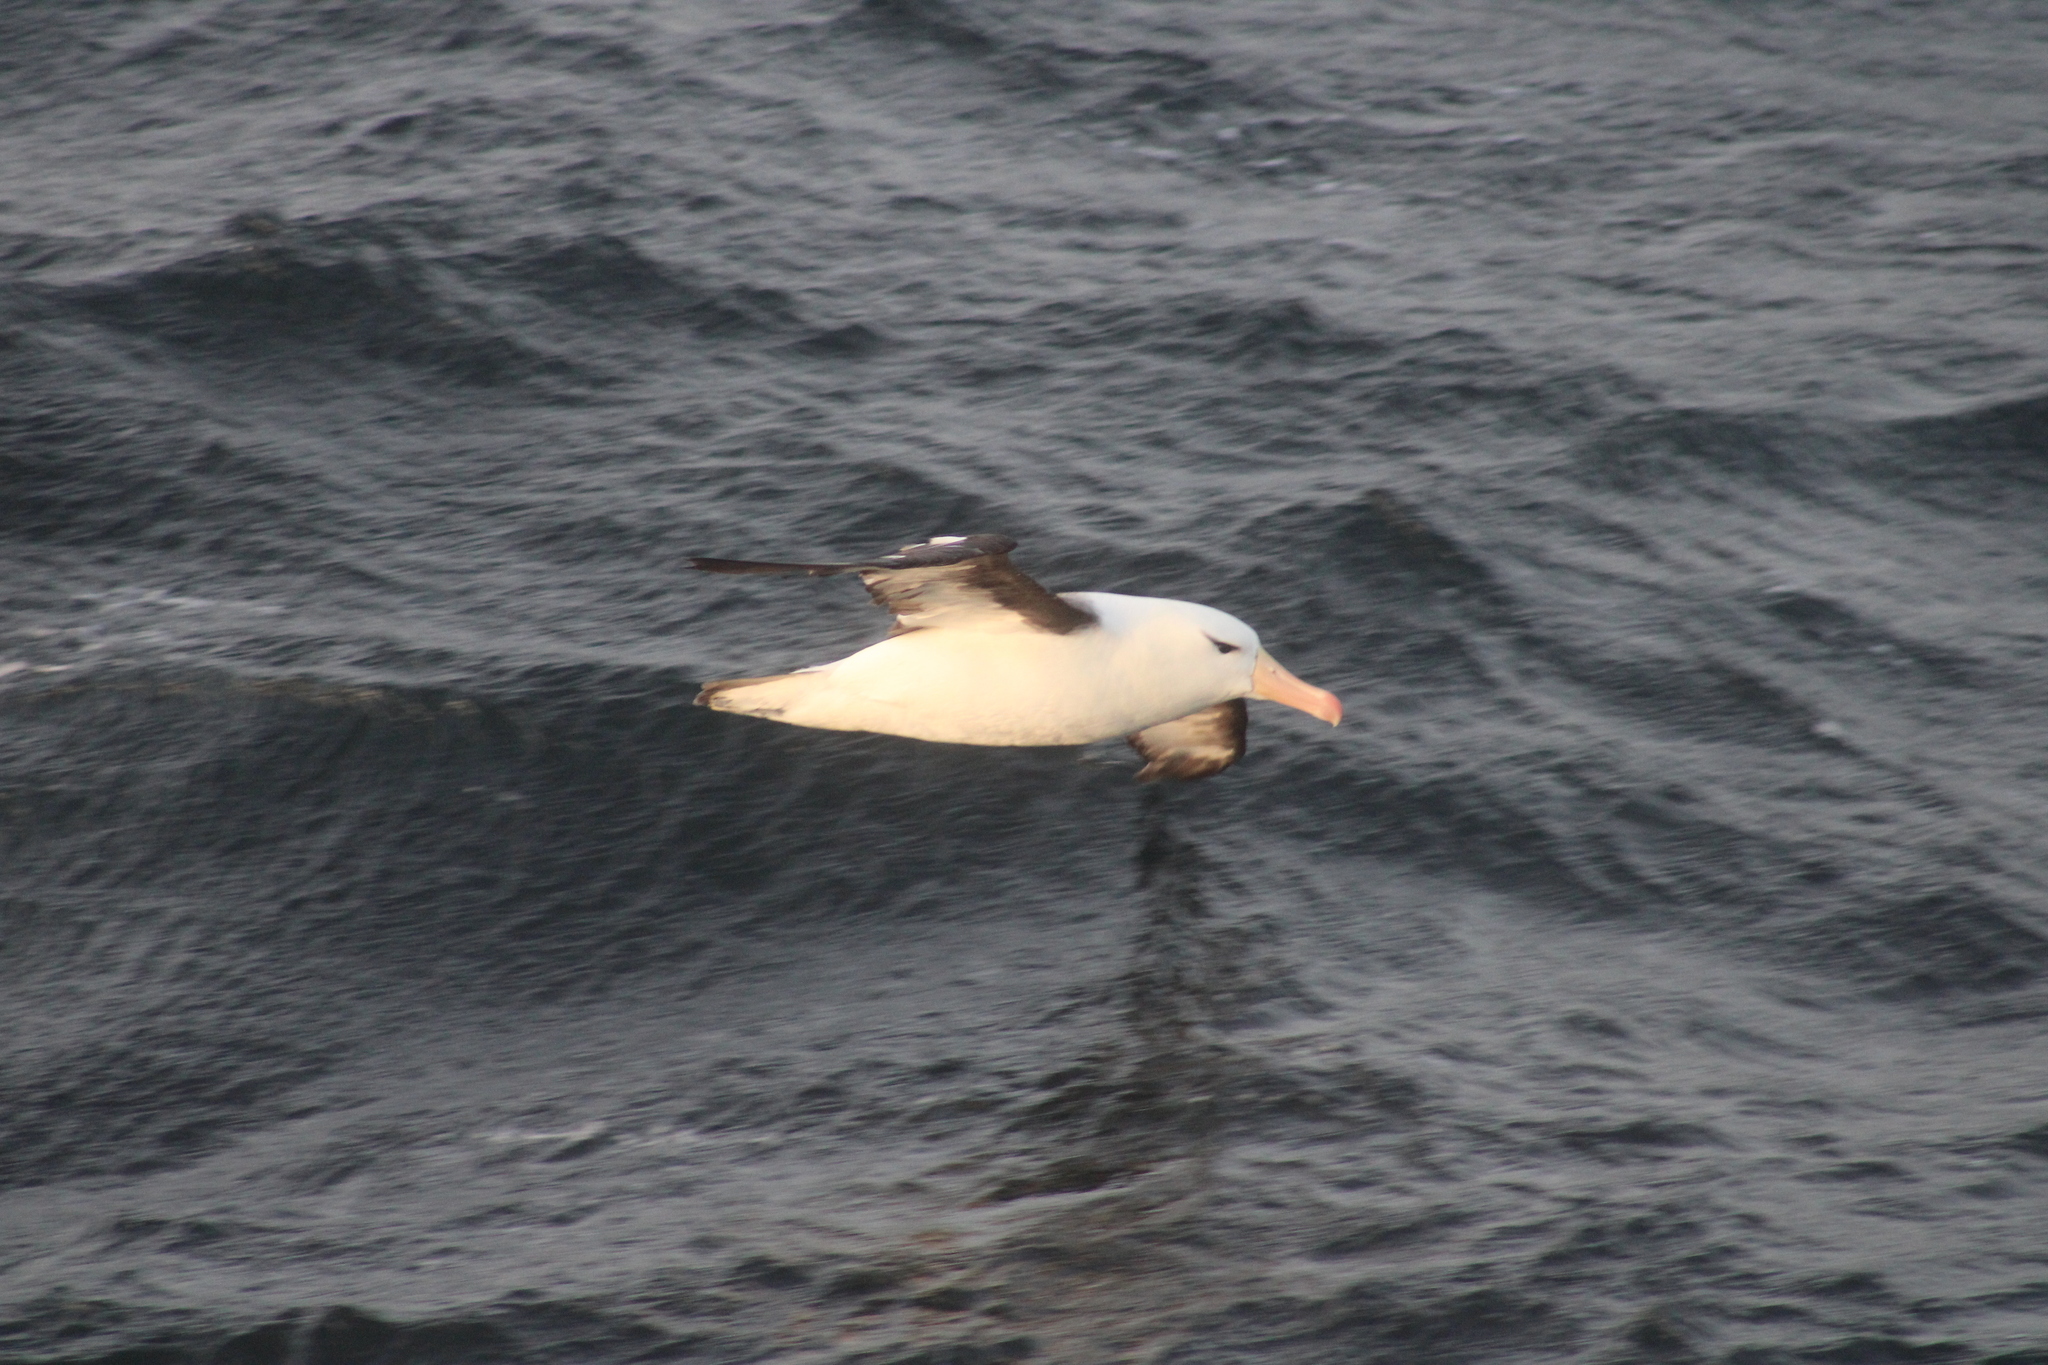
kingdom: Animalia
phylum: Chordata
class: Aves
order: Procellariiformes
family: Diomedeidae
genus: Thalassarche
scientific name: Thalassarche melanophris
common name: Black-browed albatross
